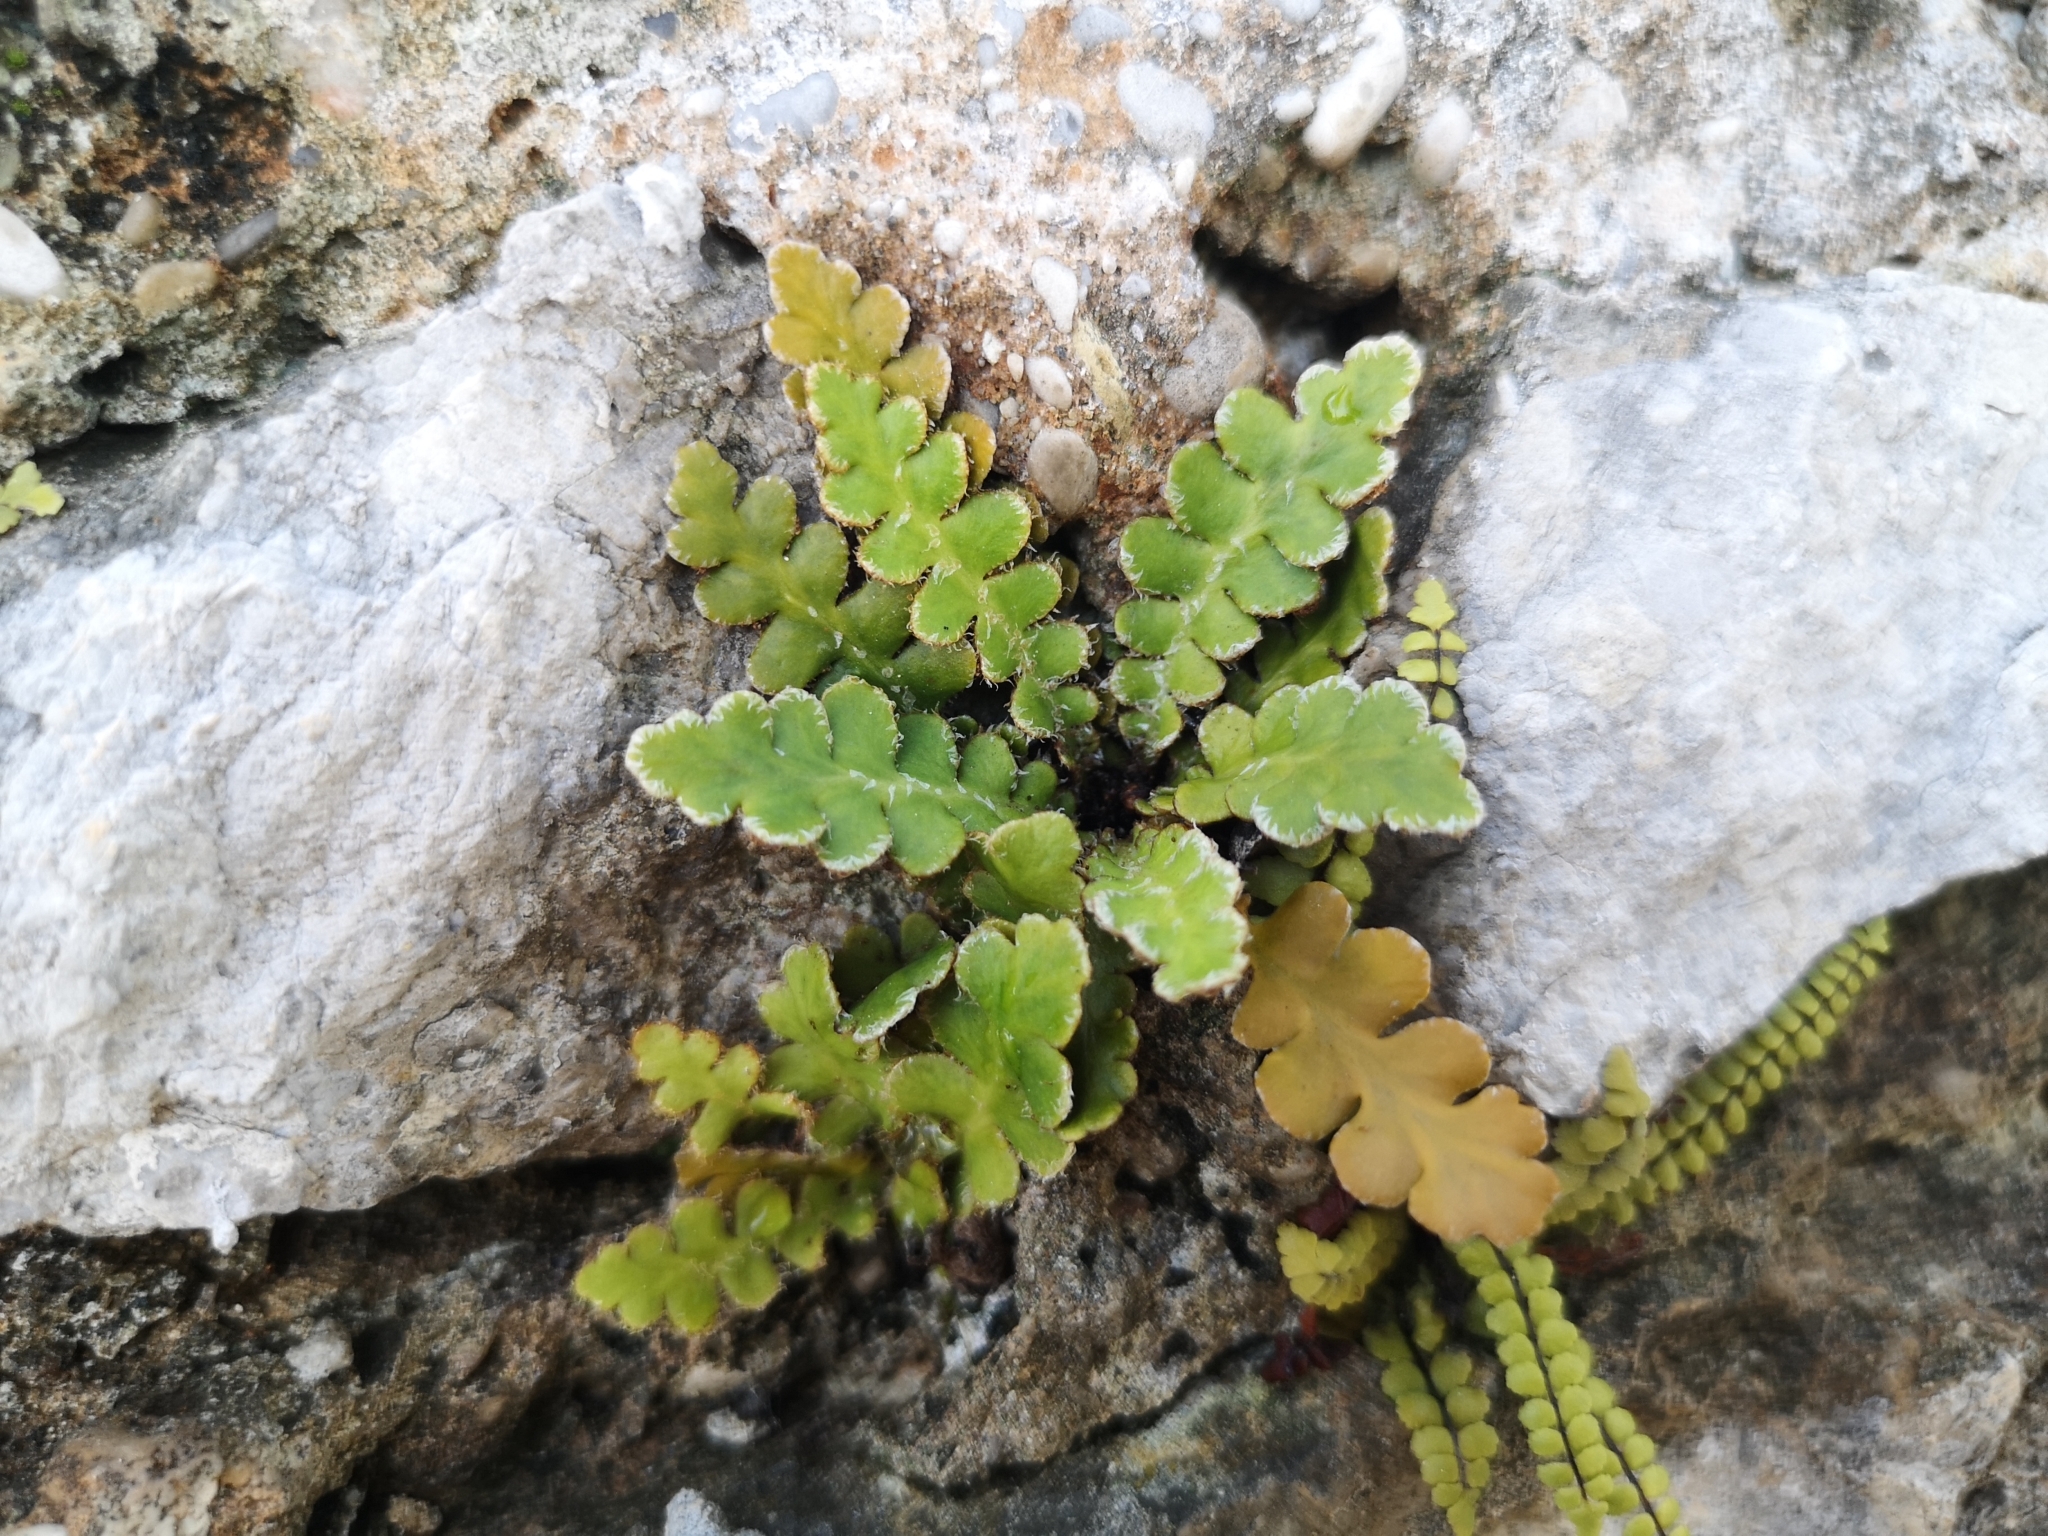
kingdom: Plantae
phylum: Tracheophyta
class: Polypodiopsida
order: Polypodiales
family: Aspleniaceae
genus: Asplenium
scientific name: Asplenium ceterach
